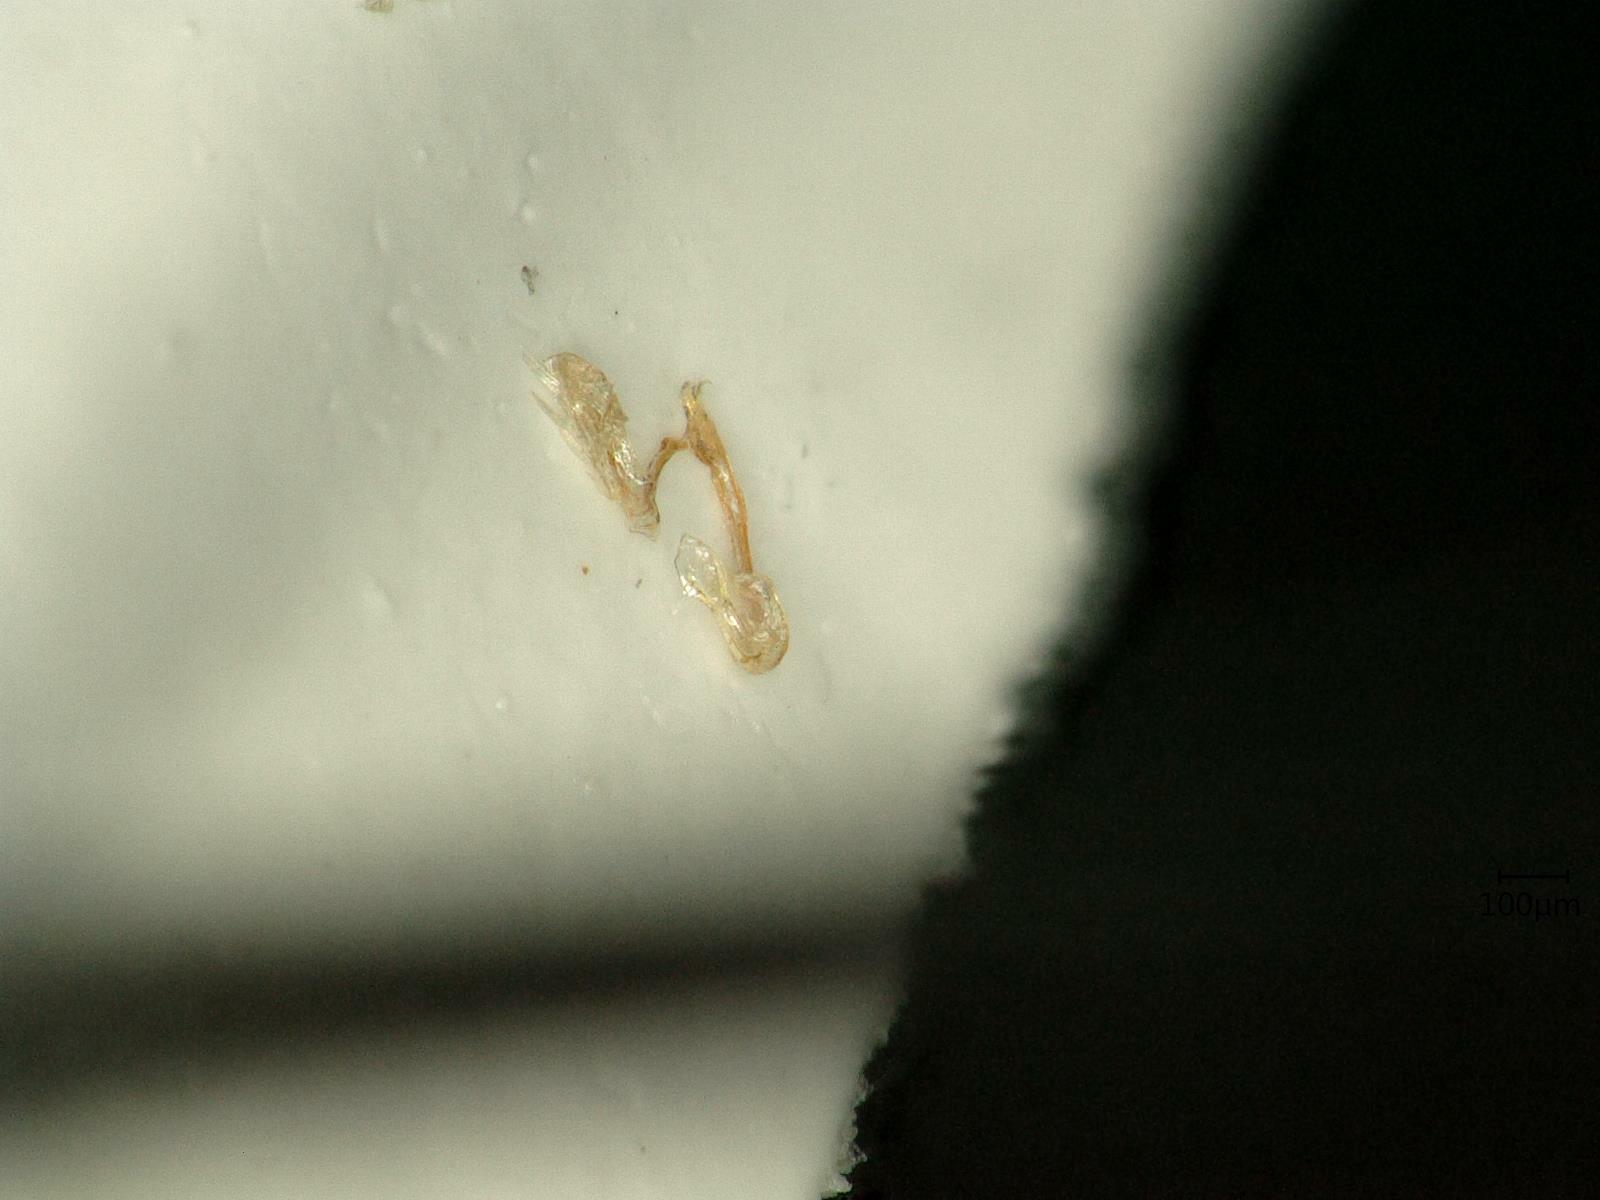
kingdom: Animalia
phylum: Arthropoda
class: Insecta
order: Hemiptera
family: Cicadellidae
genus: Psammotettix
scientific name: Psammotettix excisus
